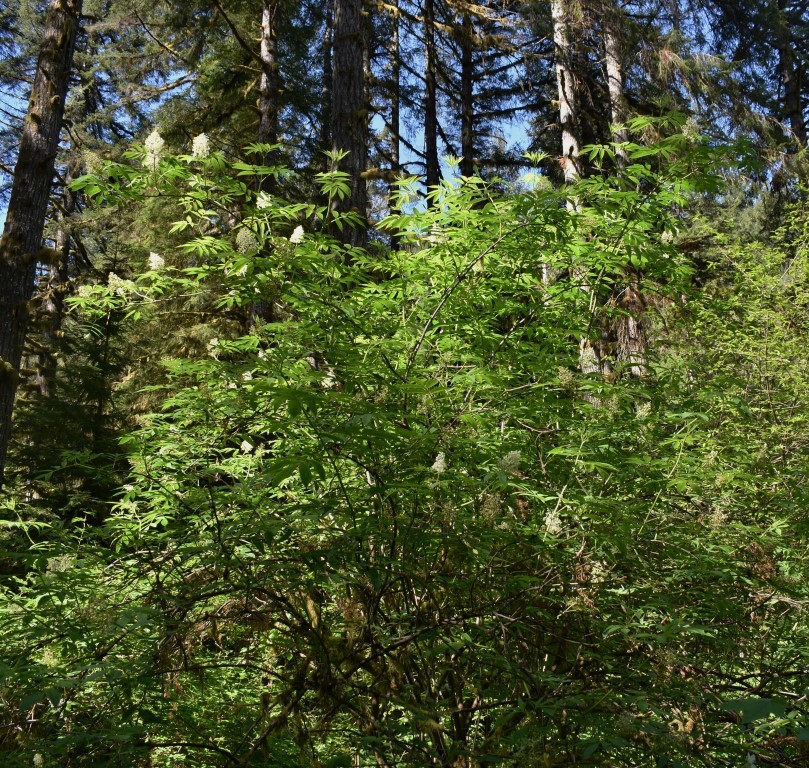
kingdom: Plantae
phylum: Tracheophyta
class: Magnoliopsida
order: Dipsacales
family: Viburnaceae
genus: Sambucus
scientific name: Sambucus racemosa
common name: Red-berried elder
